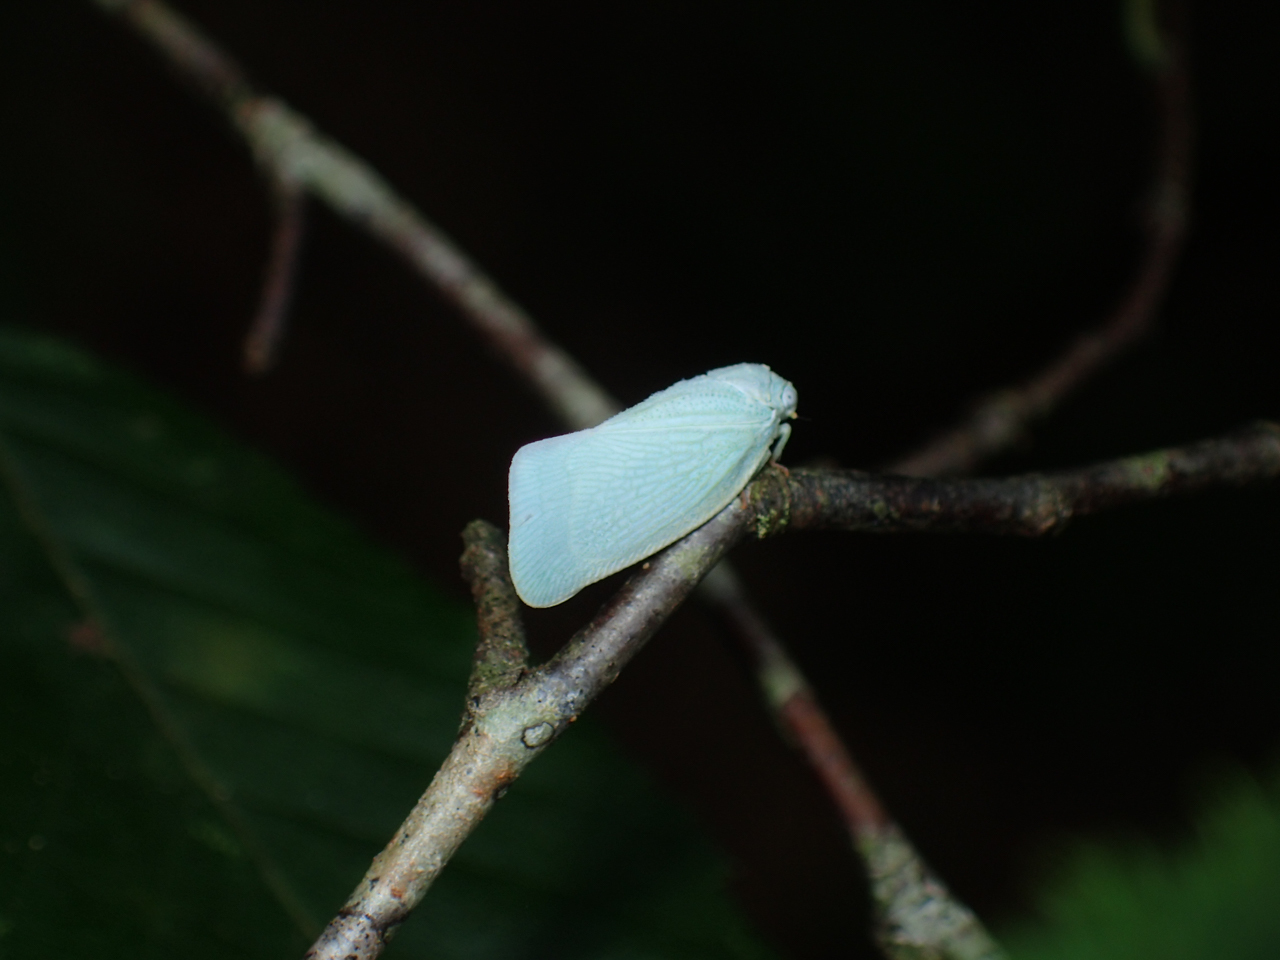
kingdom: Animalia
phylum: Arthropoda
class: Insecta
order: Hemiptera
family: Flatidae
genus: Flatormenis
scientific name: Flatormenis proxima
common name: Northern flatid planthopper
